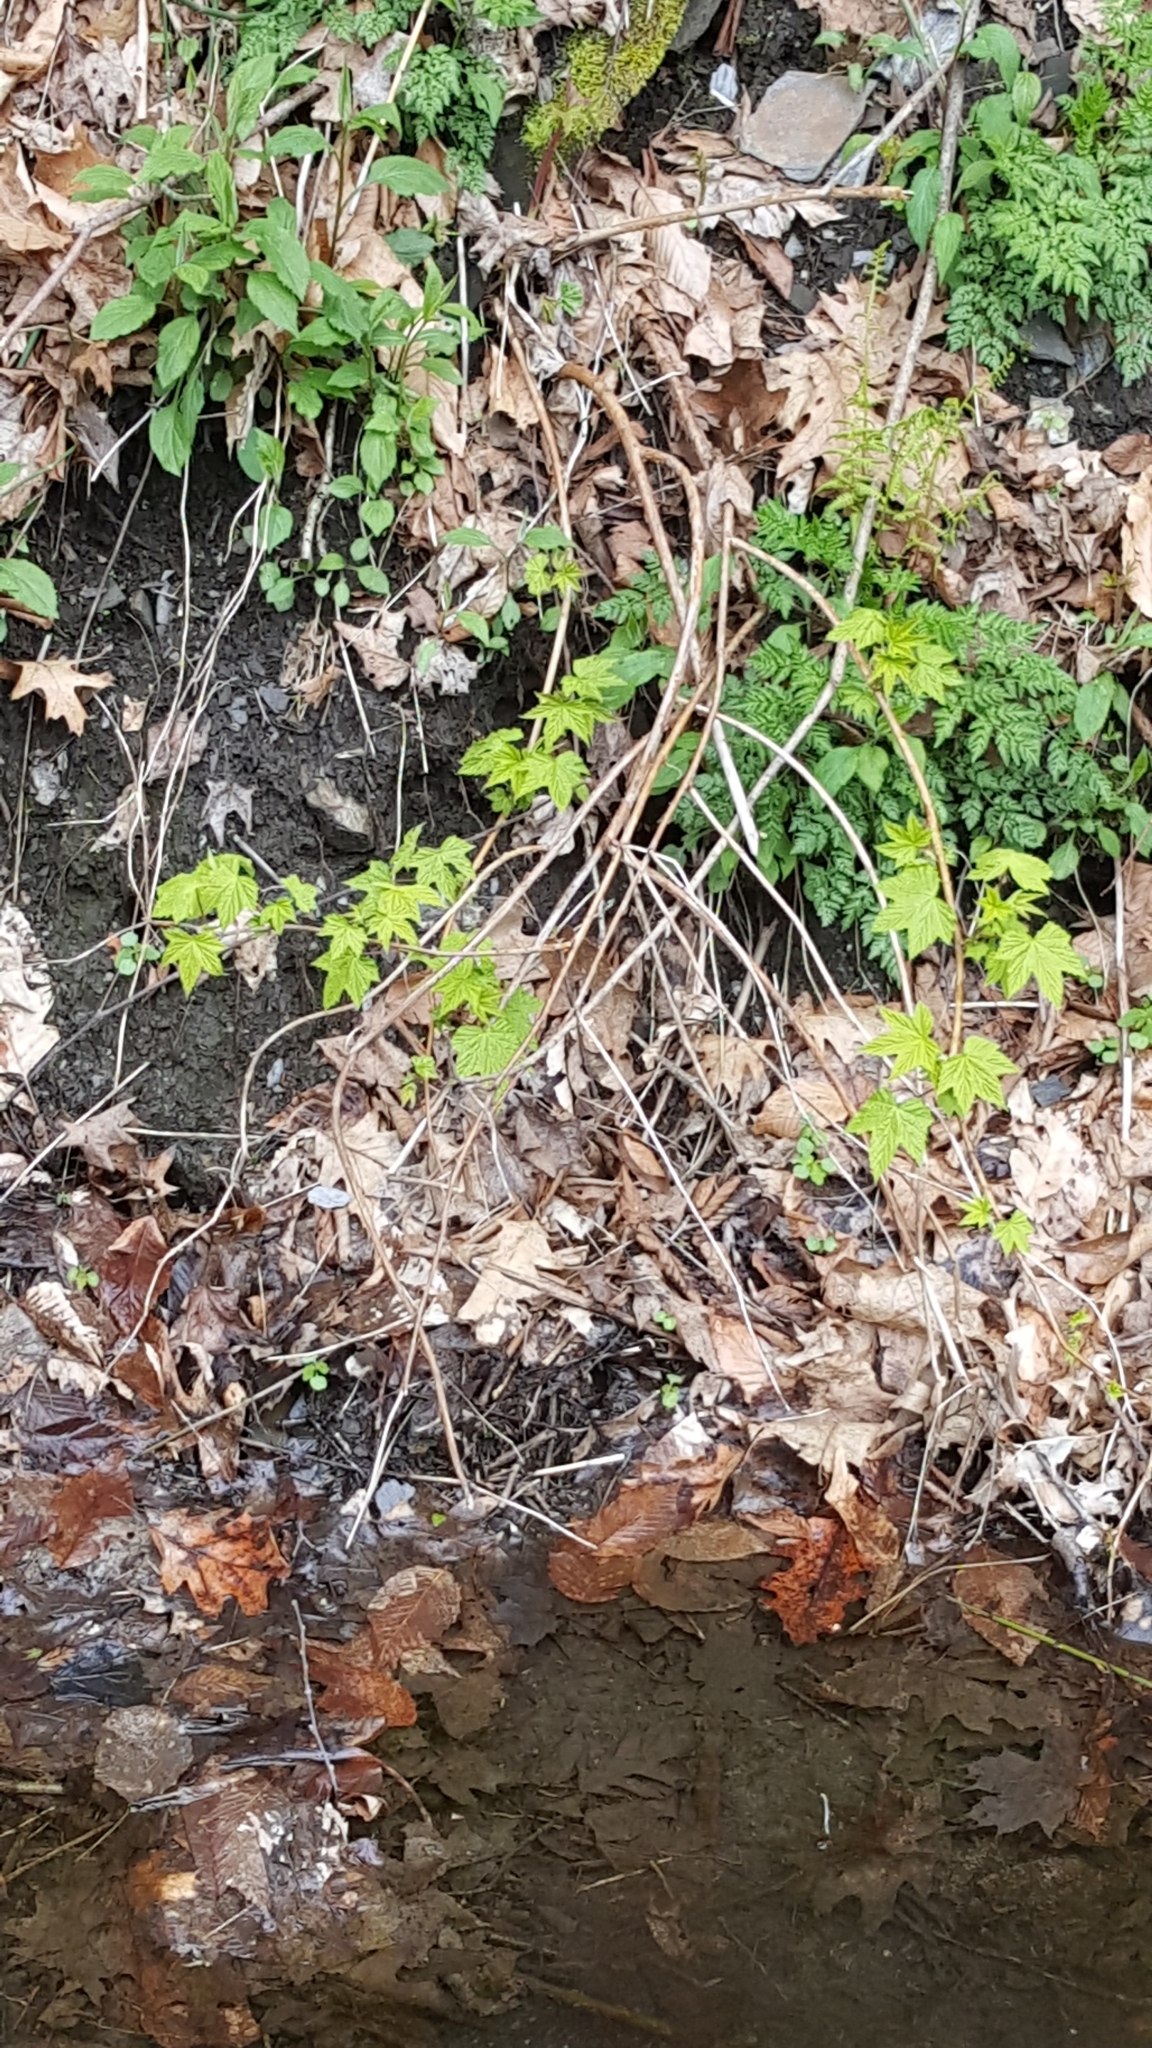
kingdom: Plantae
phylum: Tracheophyta
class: Magnoliopsida
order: Rosales
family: Rosaceae
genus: Rubus
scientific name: Rubus odoratus
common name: Purple-flowered raspberry
